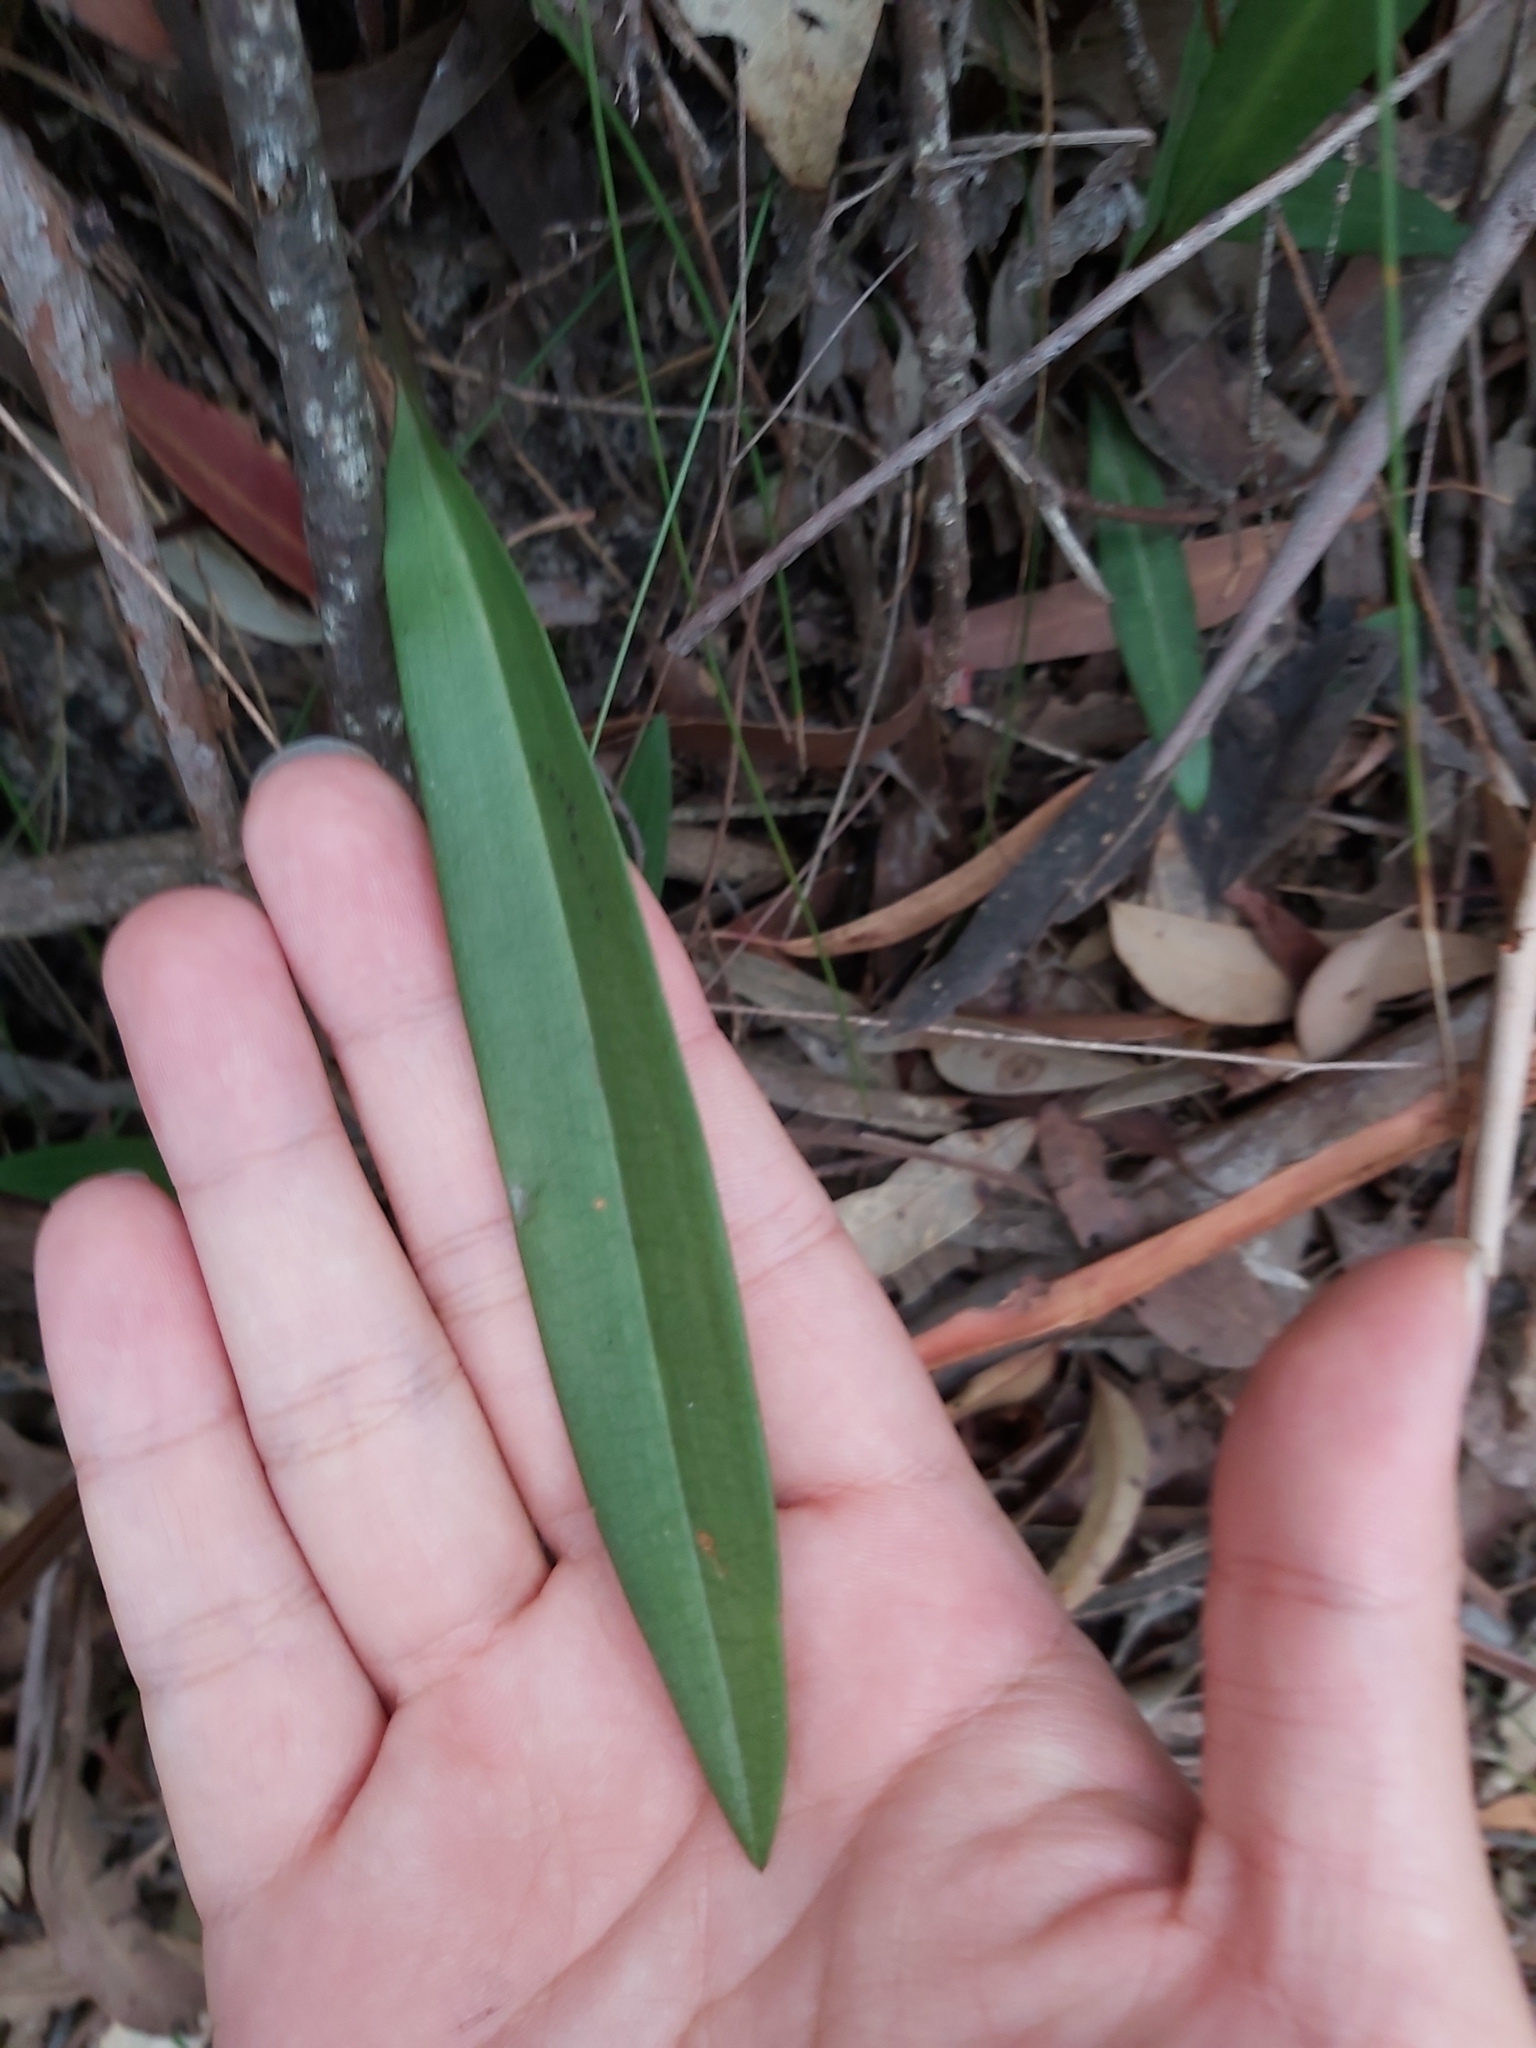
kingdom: Plantae
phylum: Tracheophyta
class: Liliopsida
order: Asparagales
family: Orchidaceae
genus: Cryptostylis
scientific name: Cryptostylis subulata
